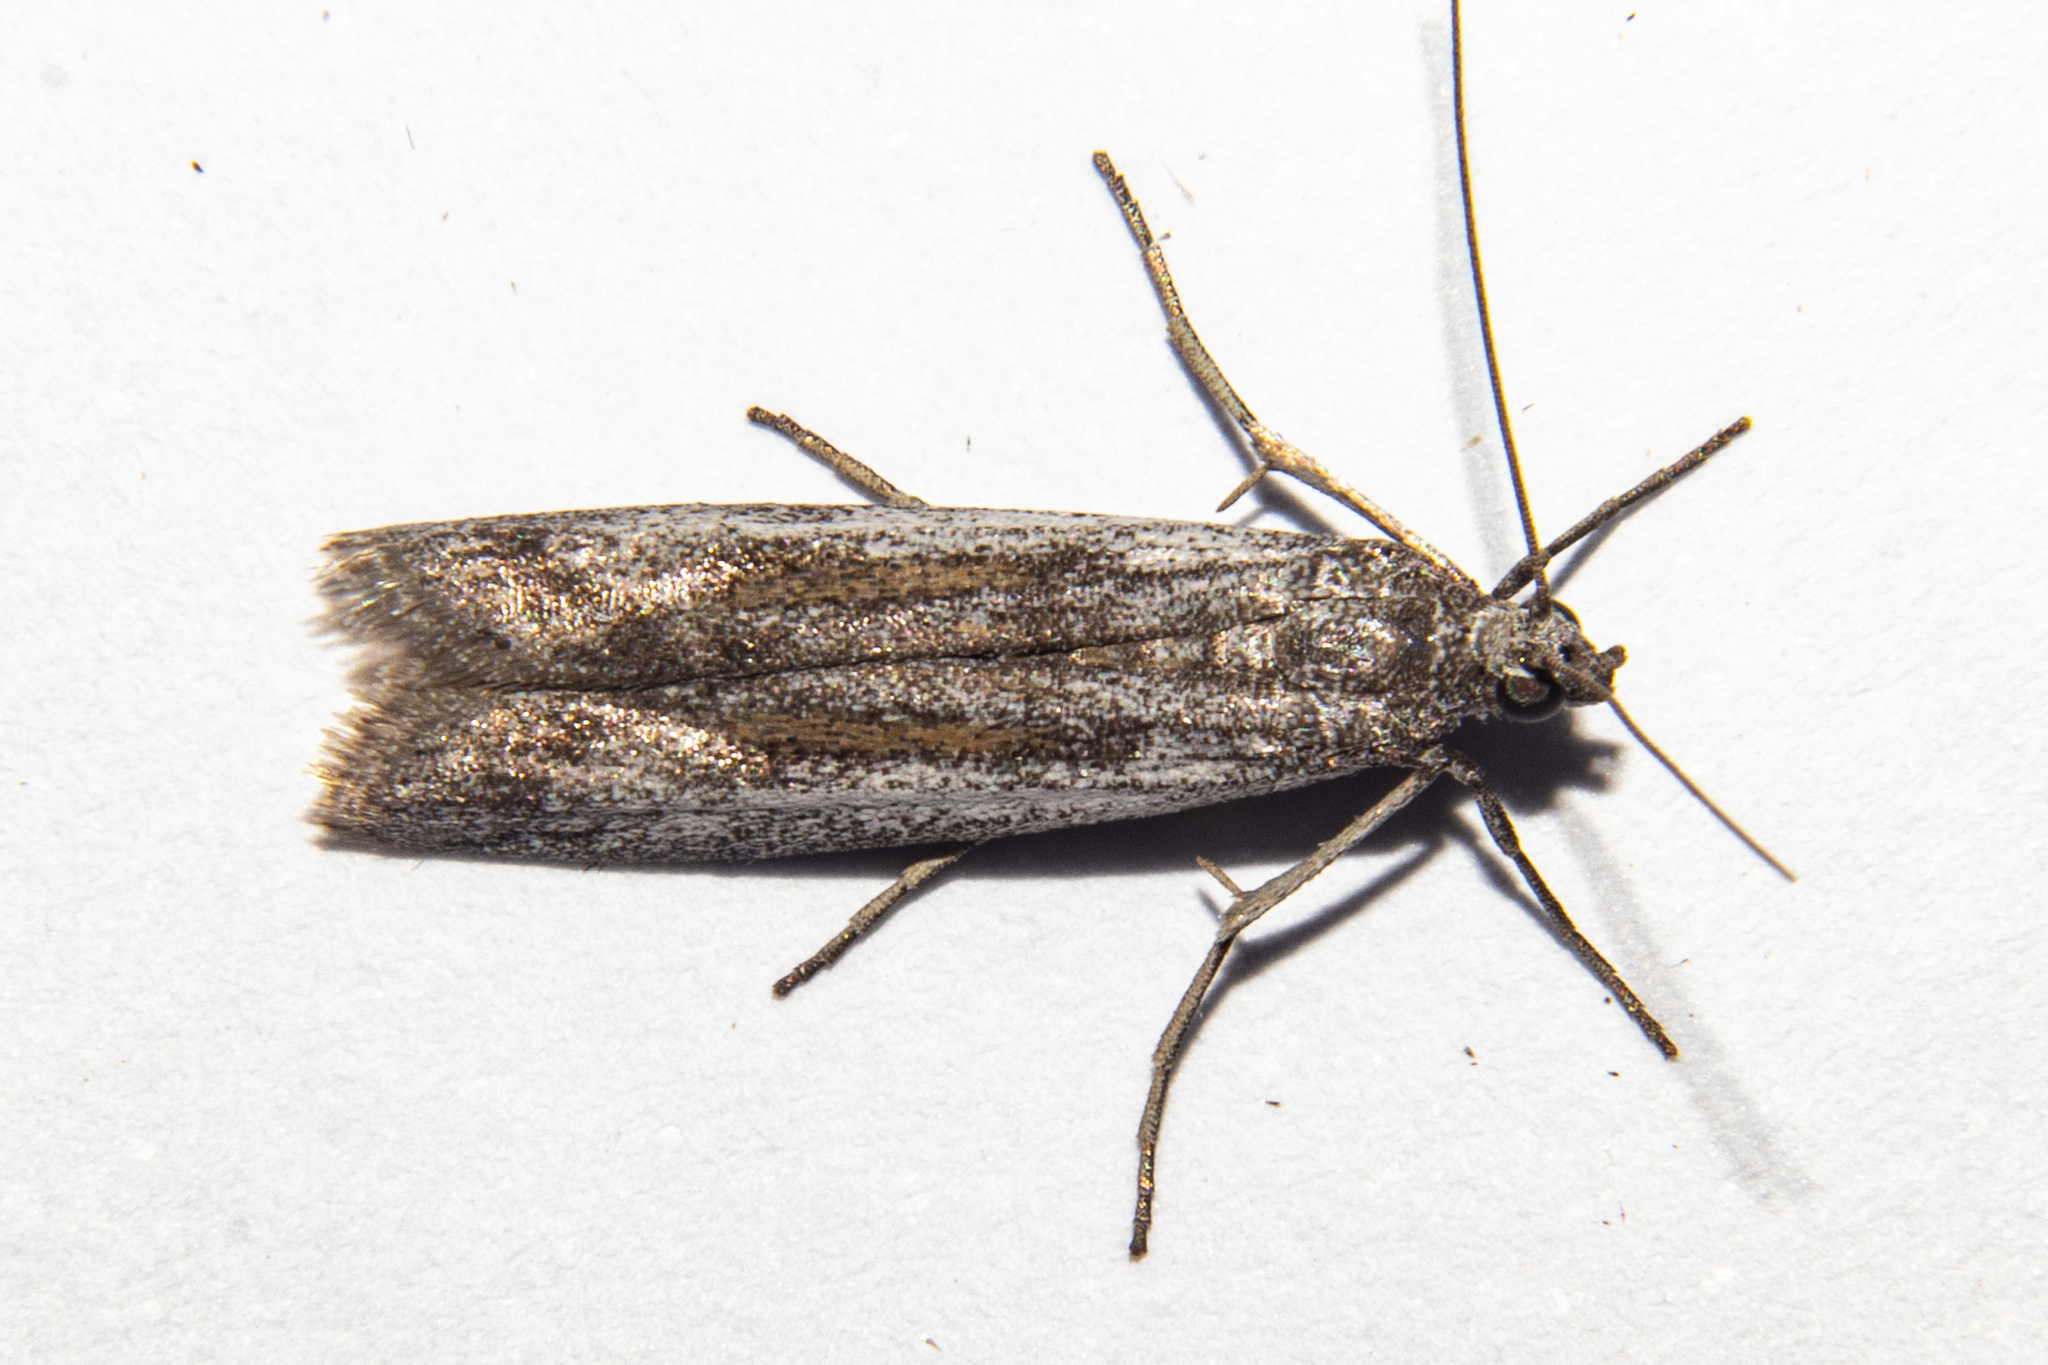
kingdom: Animalia
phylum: Arthropoda
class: Insecta
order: Lepidoptera
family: Pyralidae
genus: Homoeosoma
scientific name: Homoeosoma anaspila
